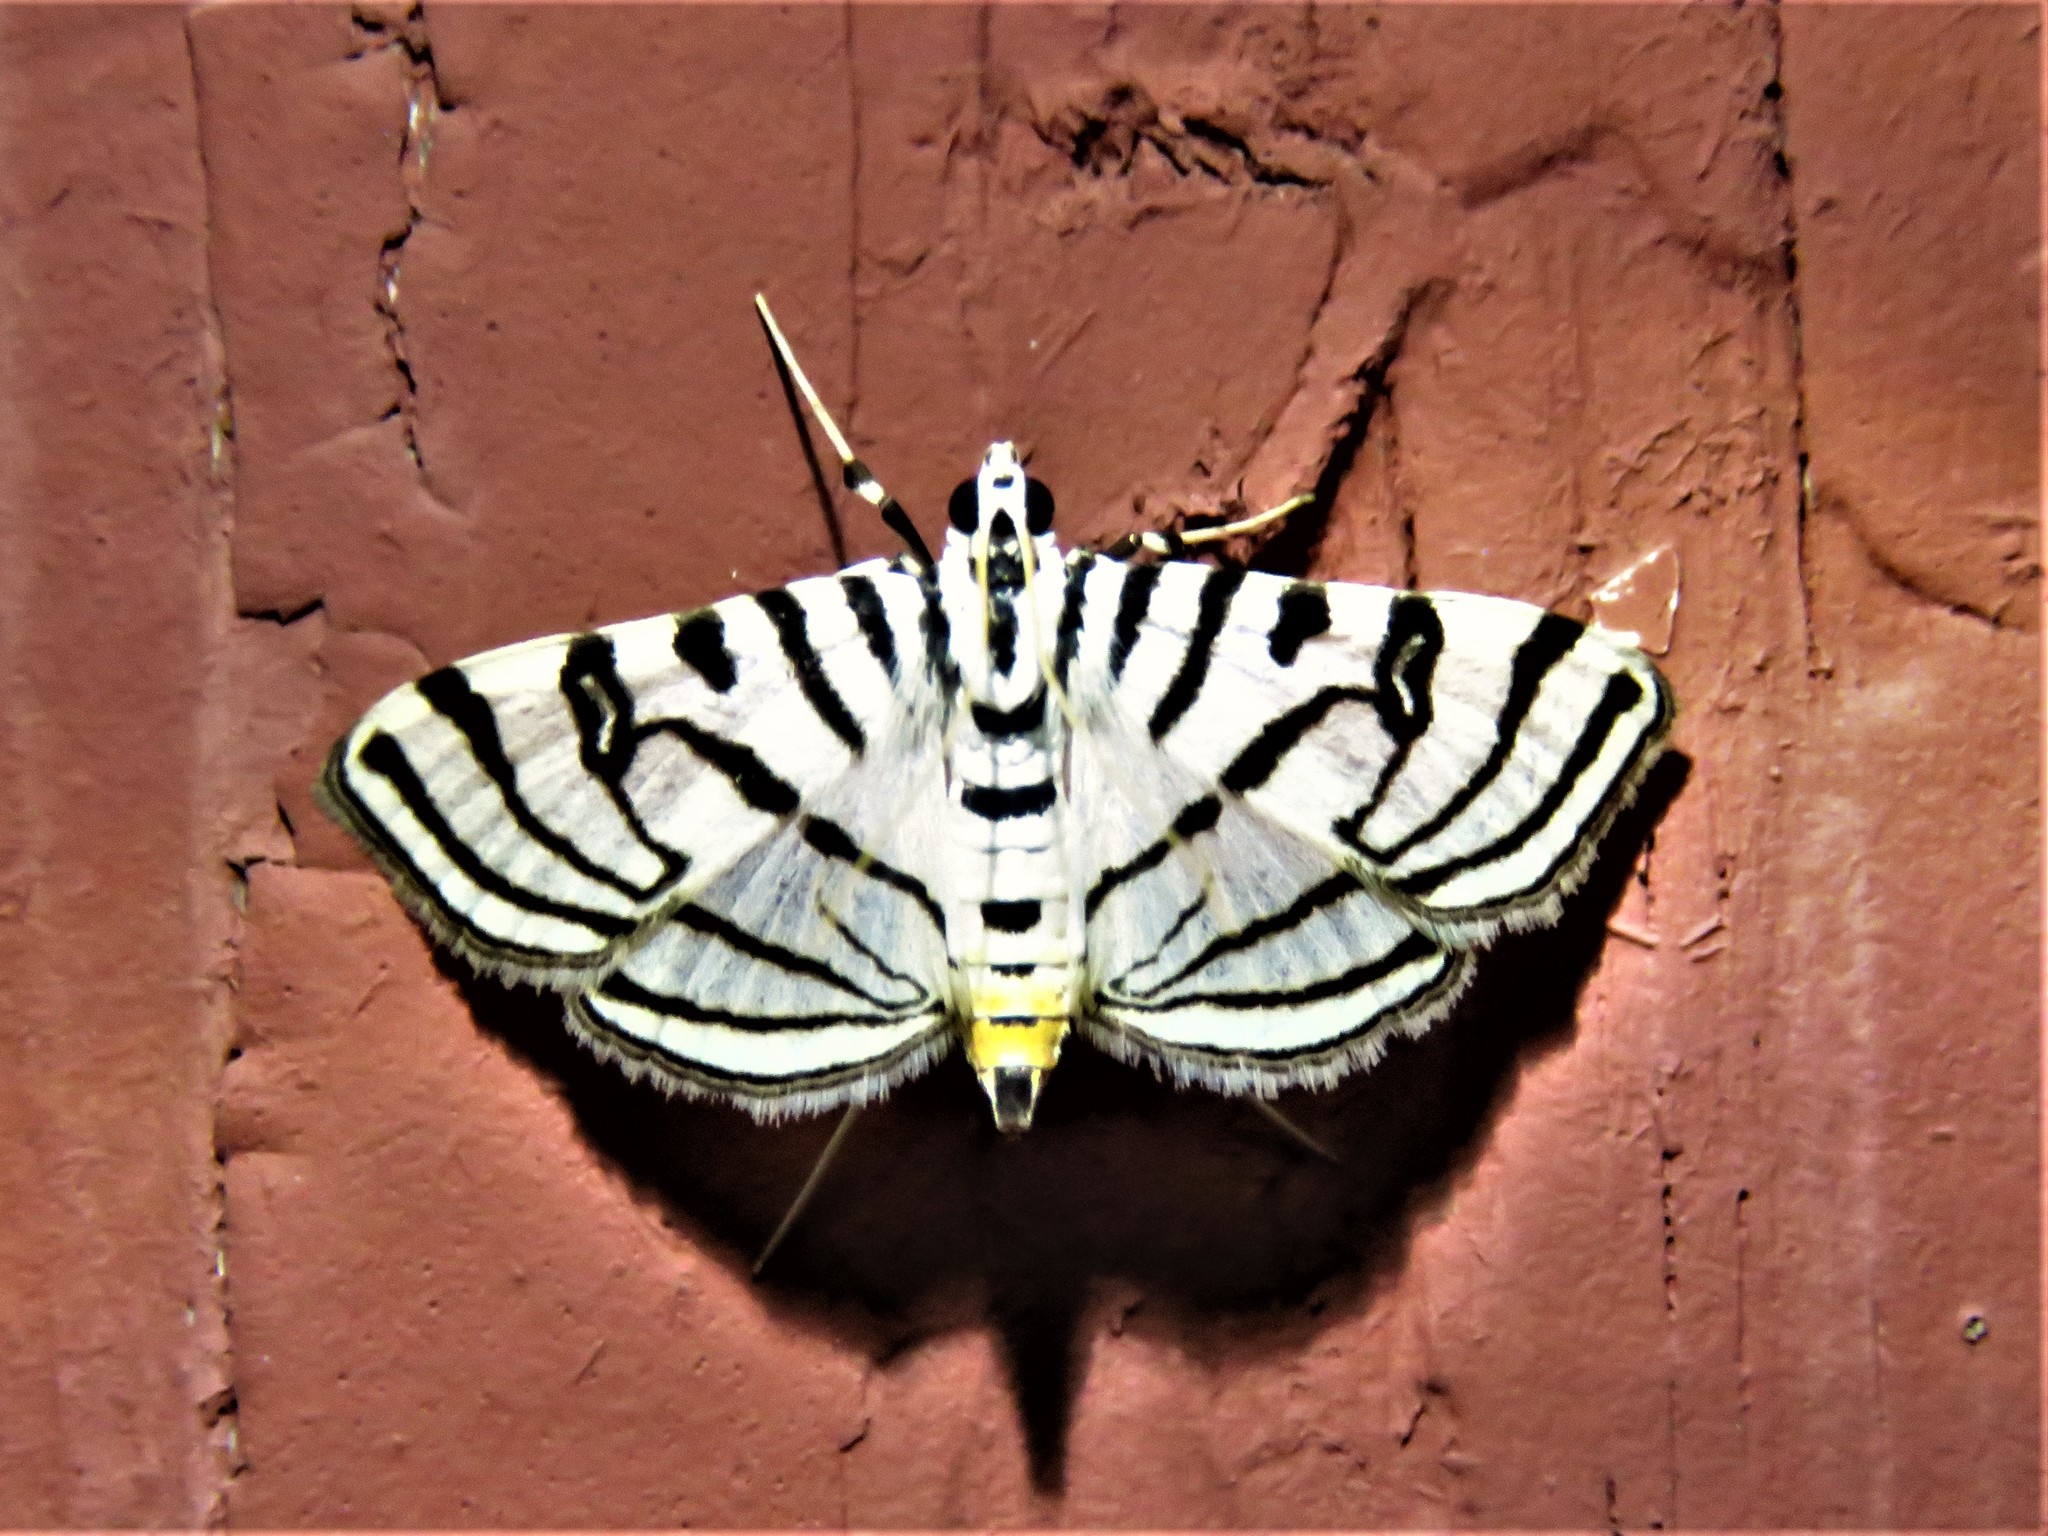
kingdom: Animalia
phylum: Arthropoda
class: Insecta
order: Lepidoptera
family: Crambidae
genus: Conchylodes
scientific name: Conchylodes ovulalis
